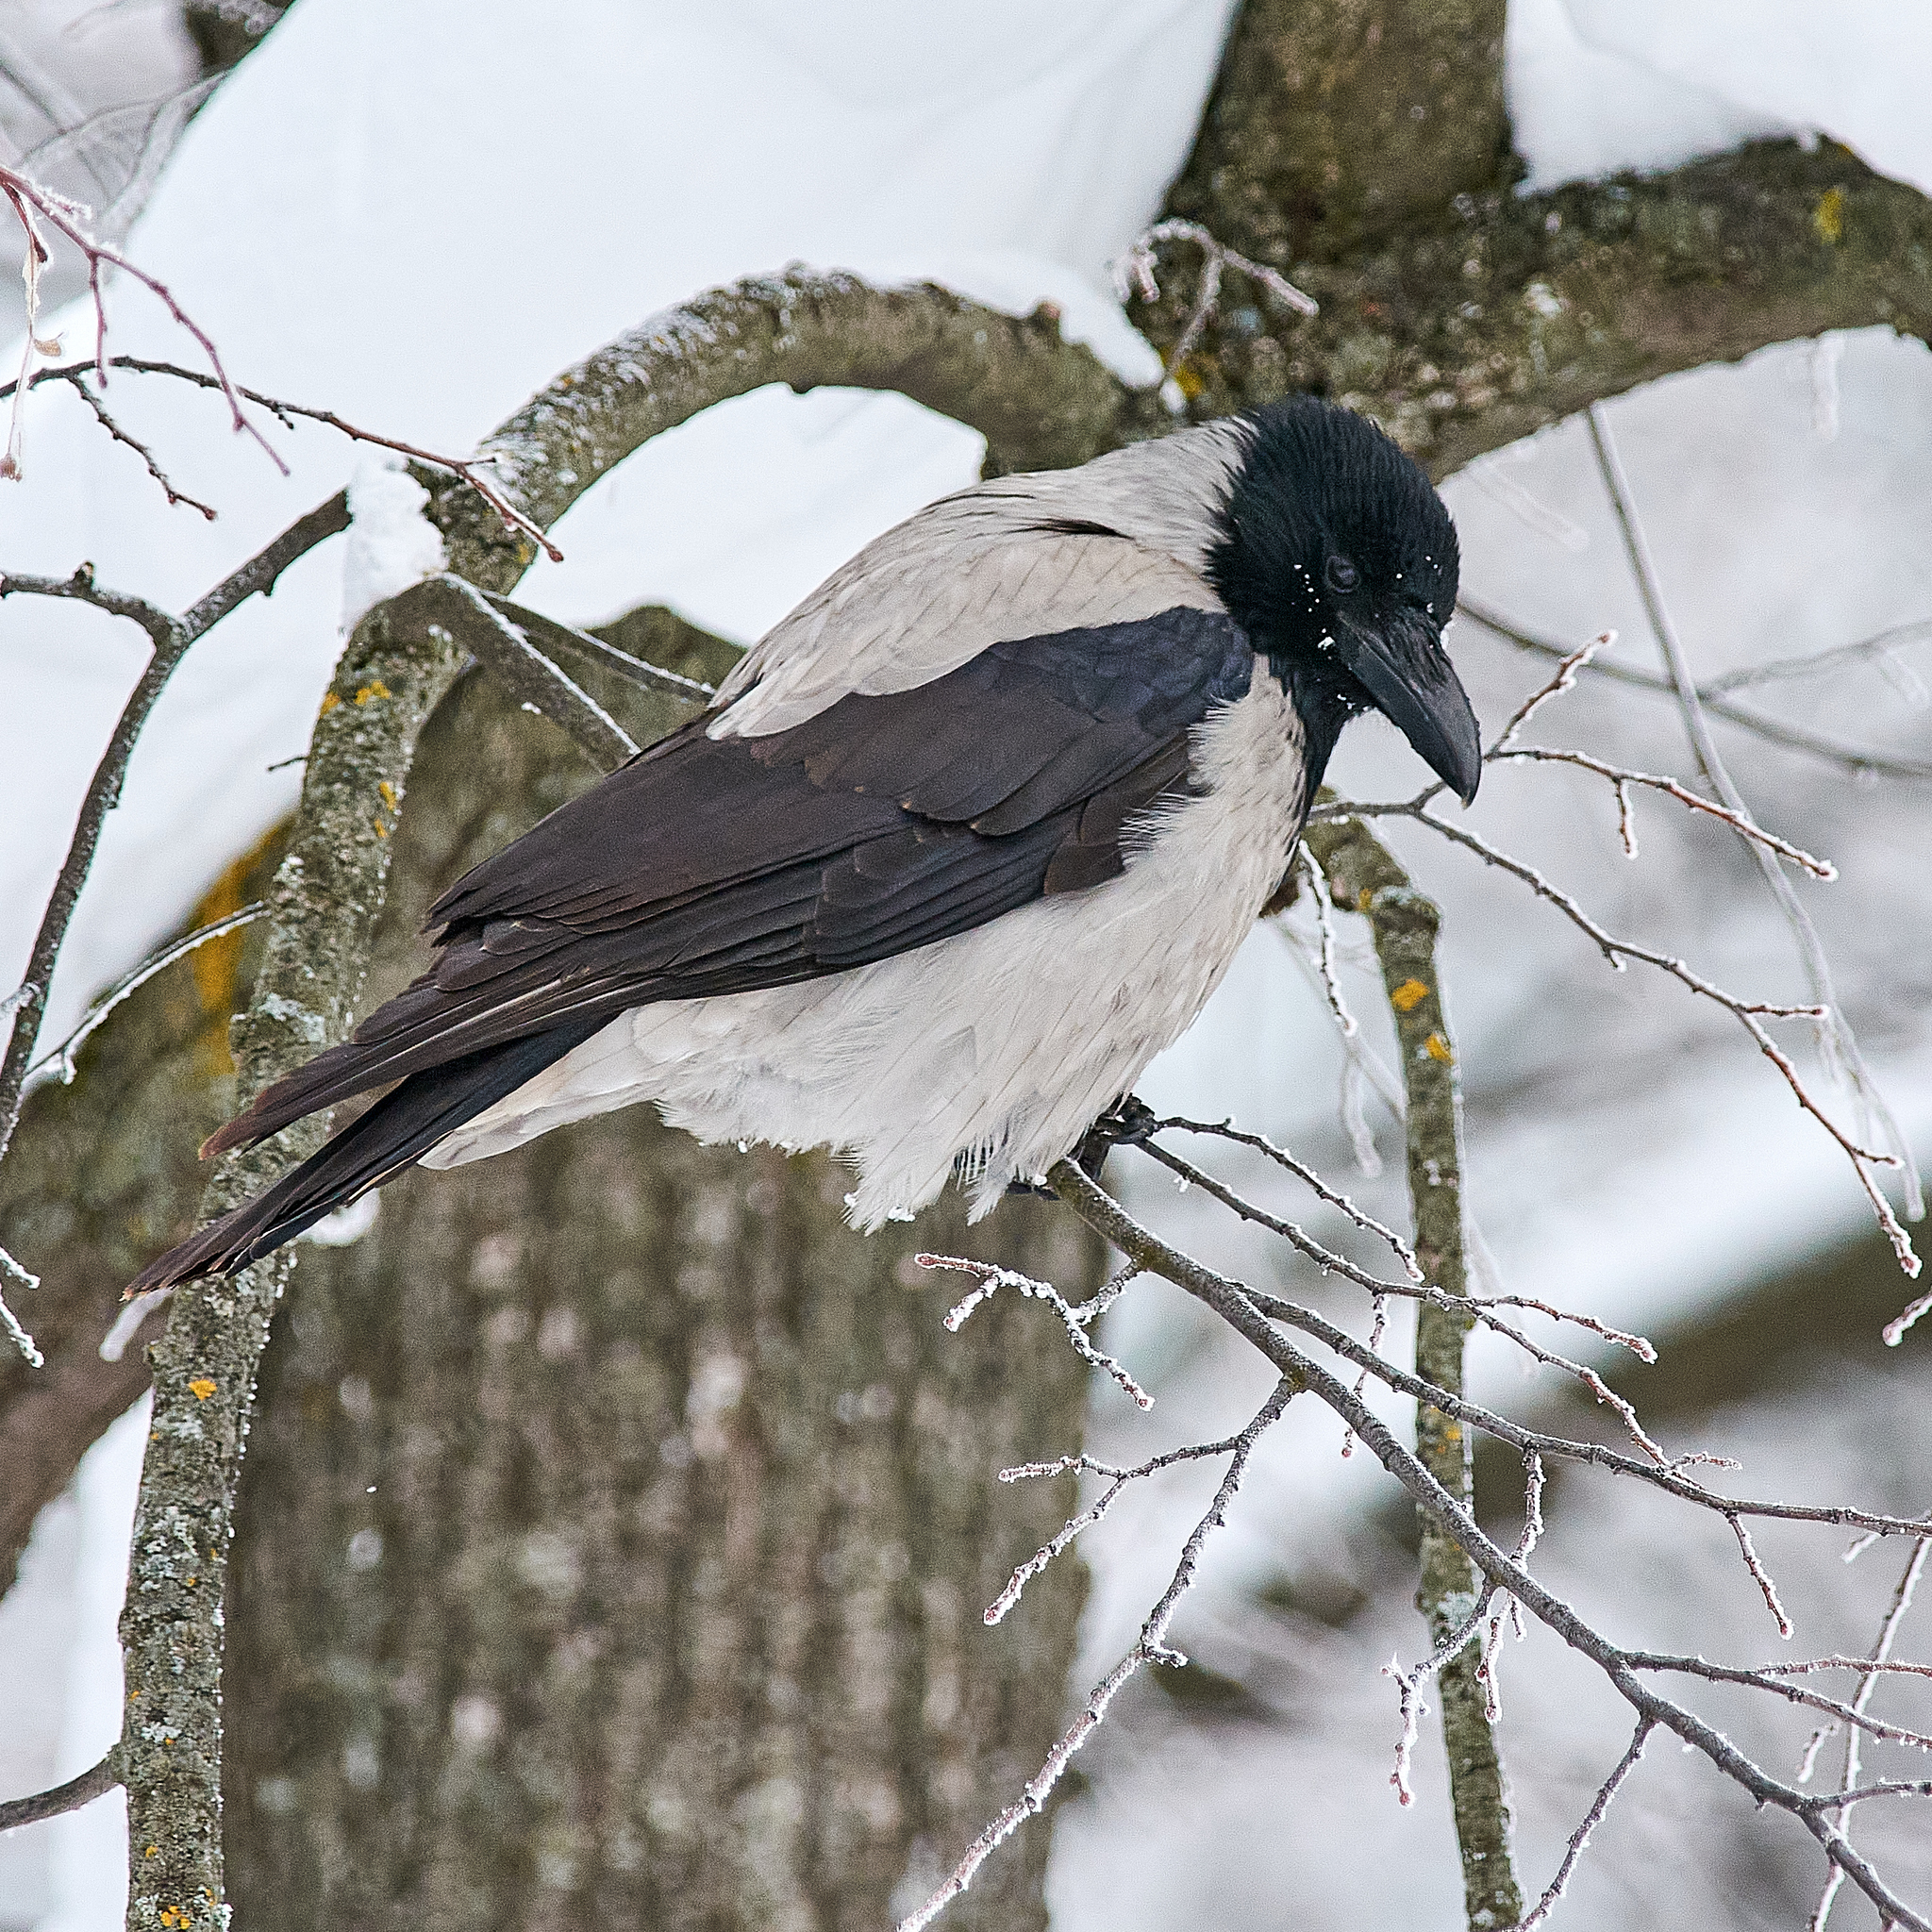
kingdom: Animalia
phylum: Chordata
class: Aves
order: Passeriformes
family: Corvidae
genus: Corvus
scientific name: Corvus cornix
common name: Hooded crow
